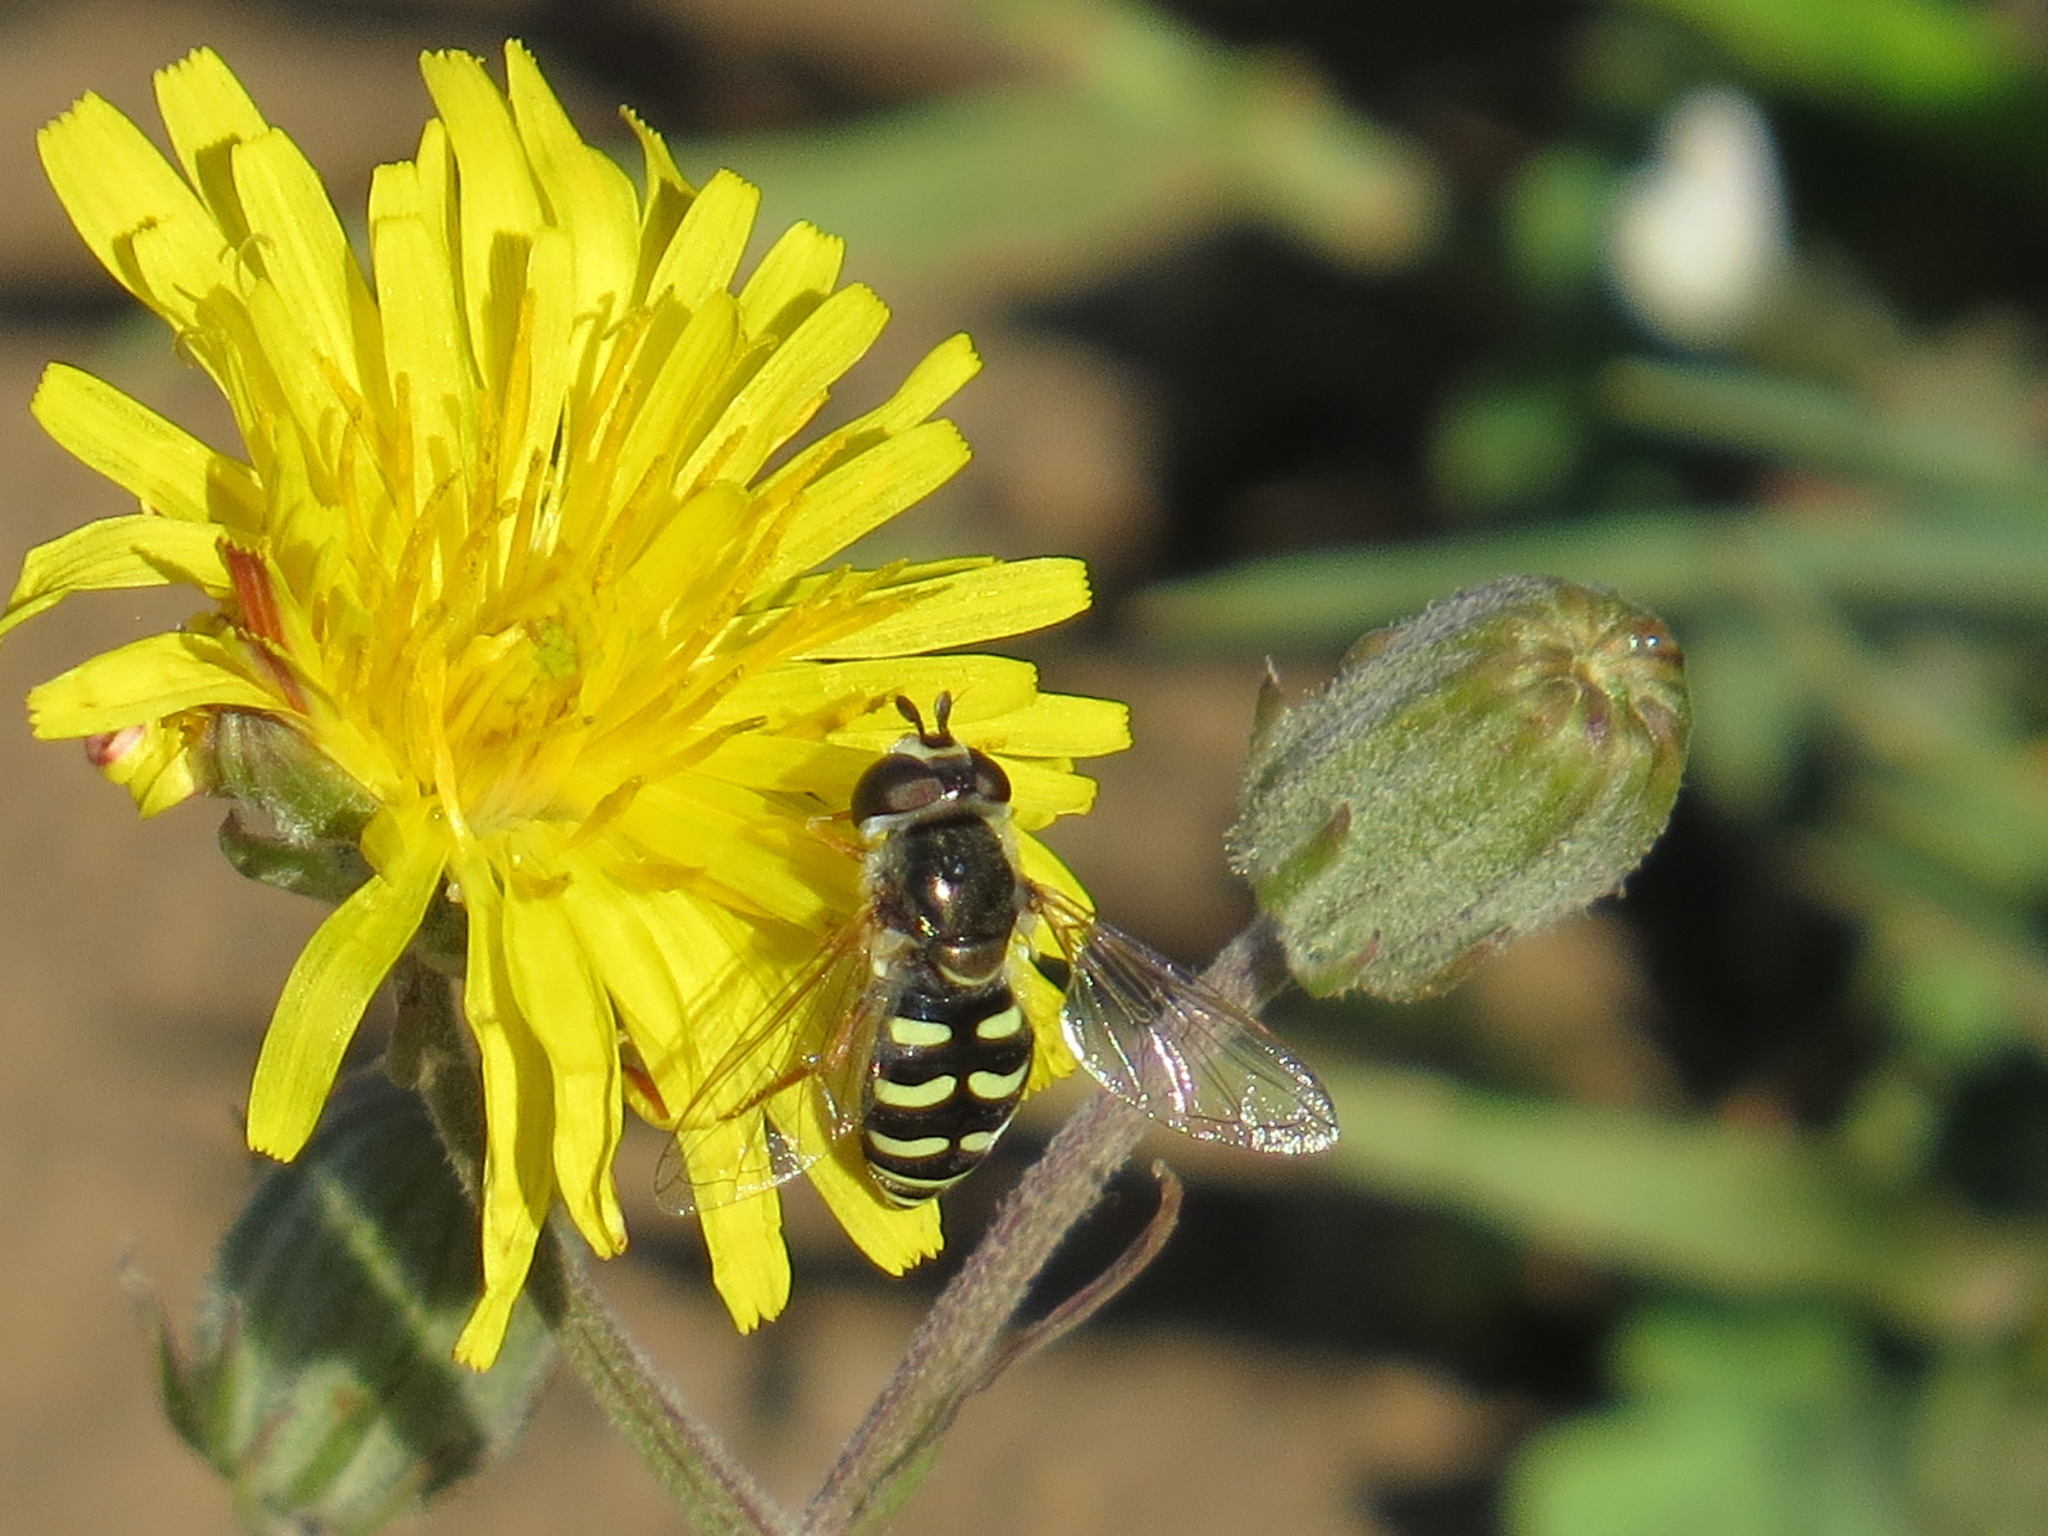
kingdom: Animalia
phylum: Arthropoda
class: Insecta
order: Diptera
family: Syrphidae
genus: Eupeodes
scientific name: Eupeodes volucris
